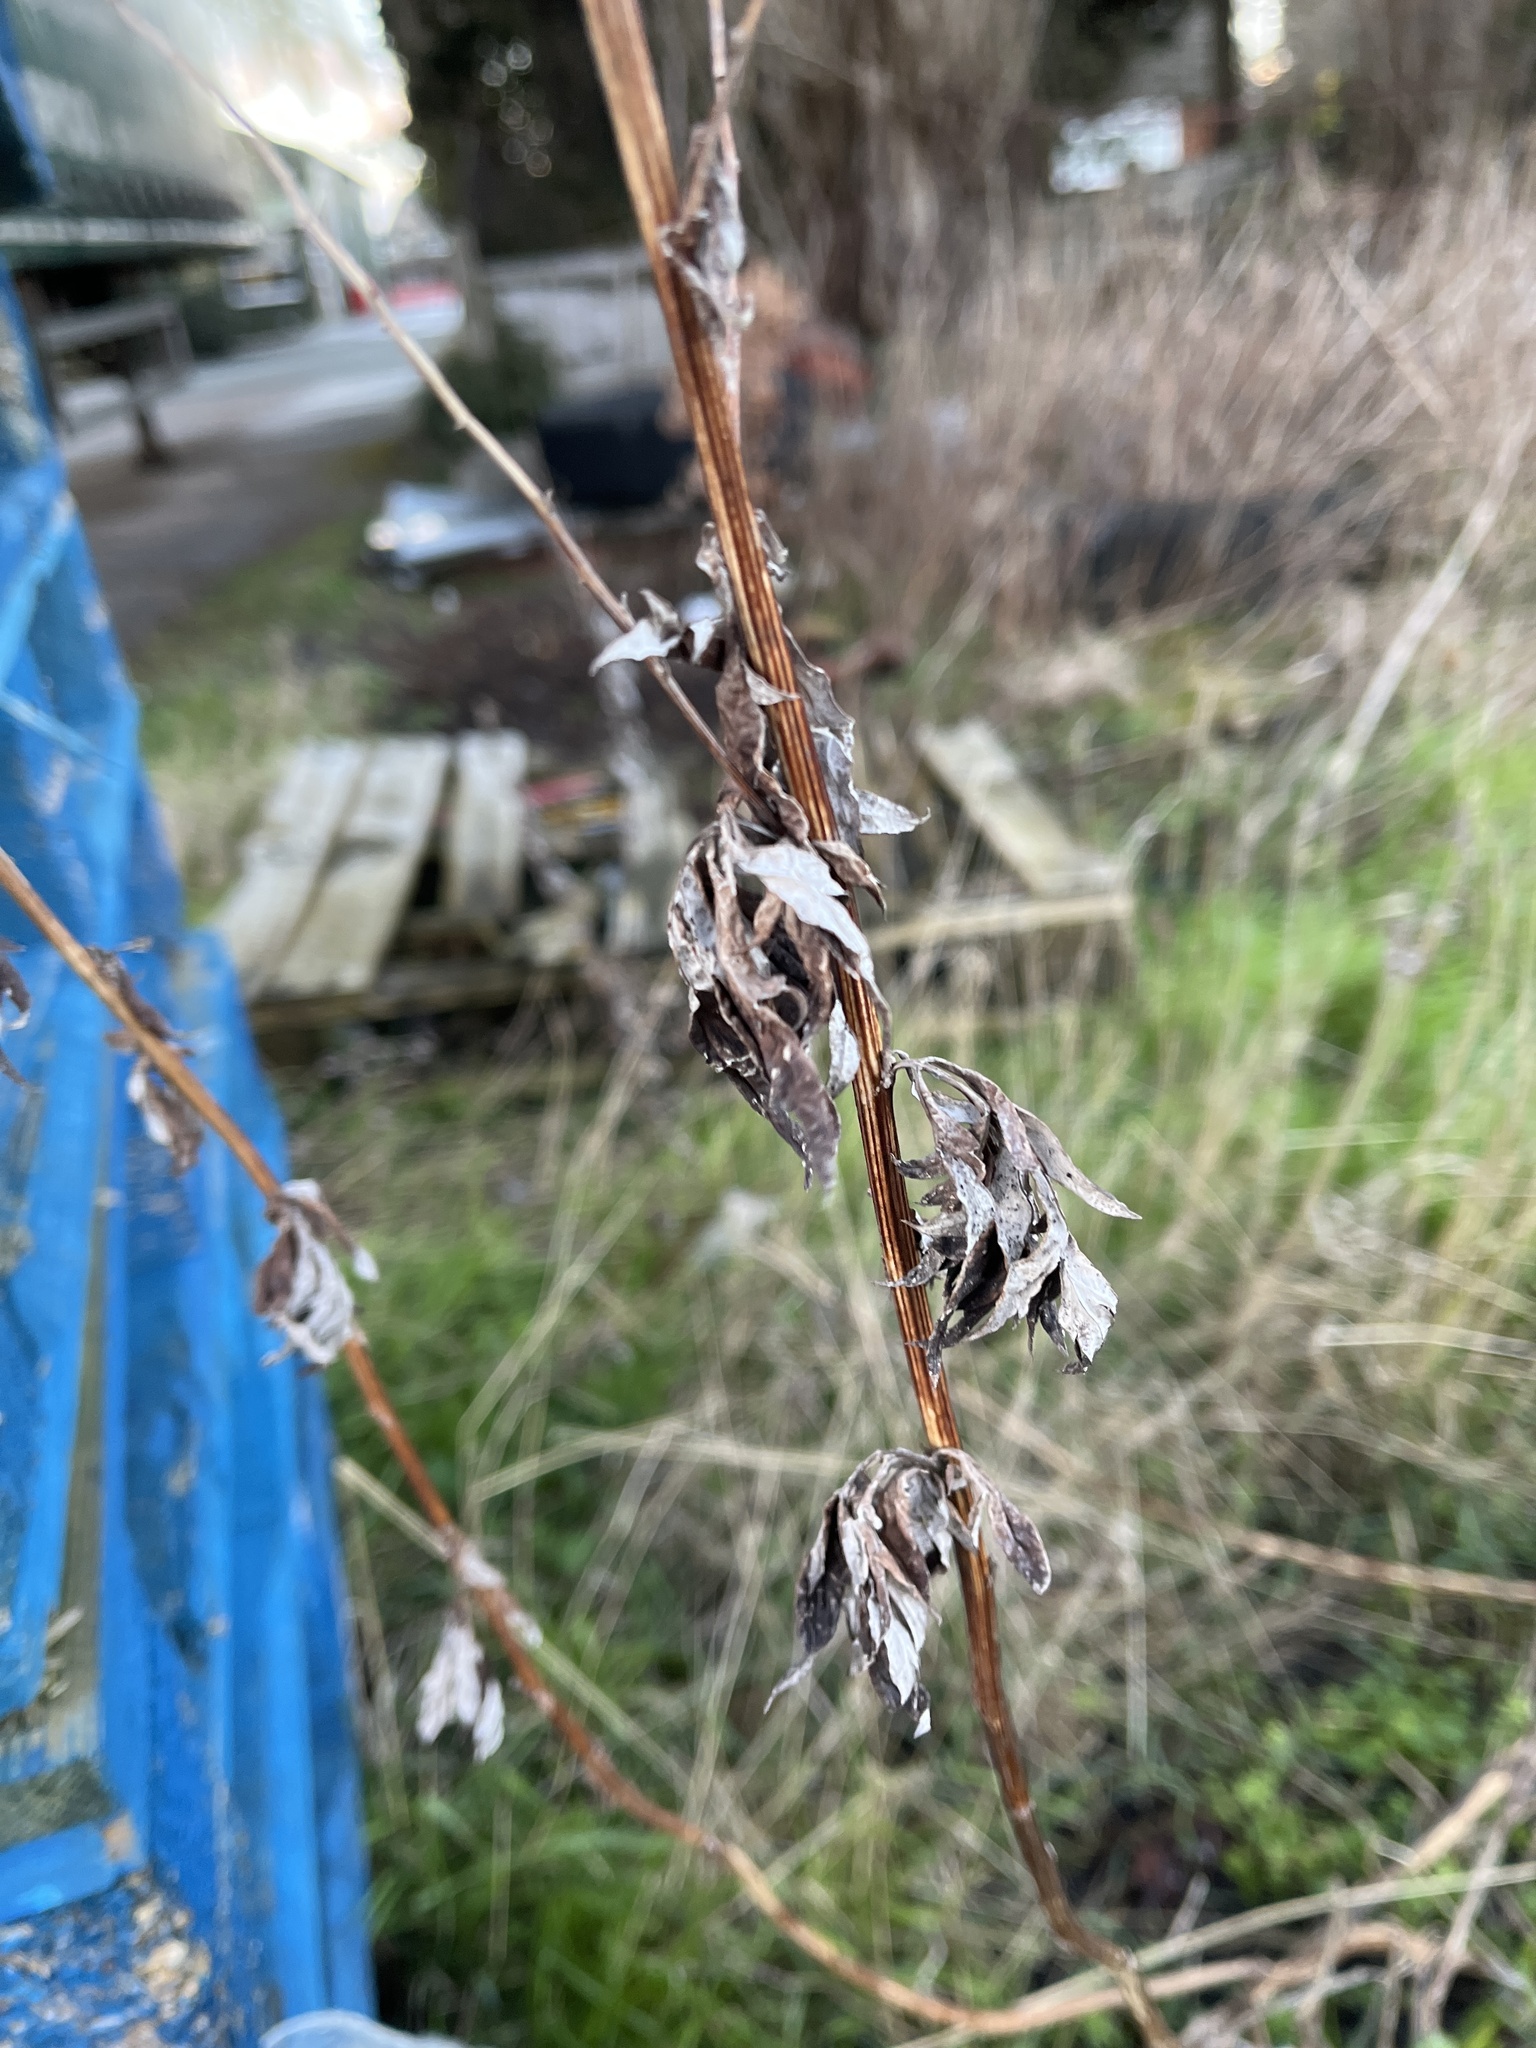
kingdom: Plantae
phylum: Tracheophyta
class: Magnoliopsida
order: Asterales
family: Asteraceae
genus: Artemisia
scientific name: Artemisia vulgaris
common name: Mugwort
